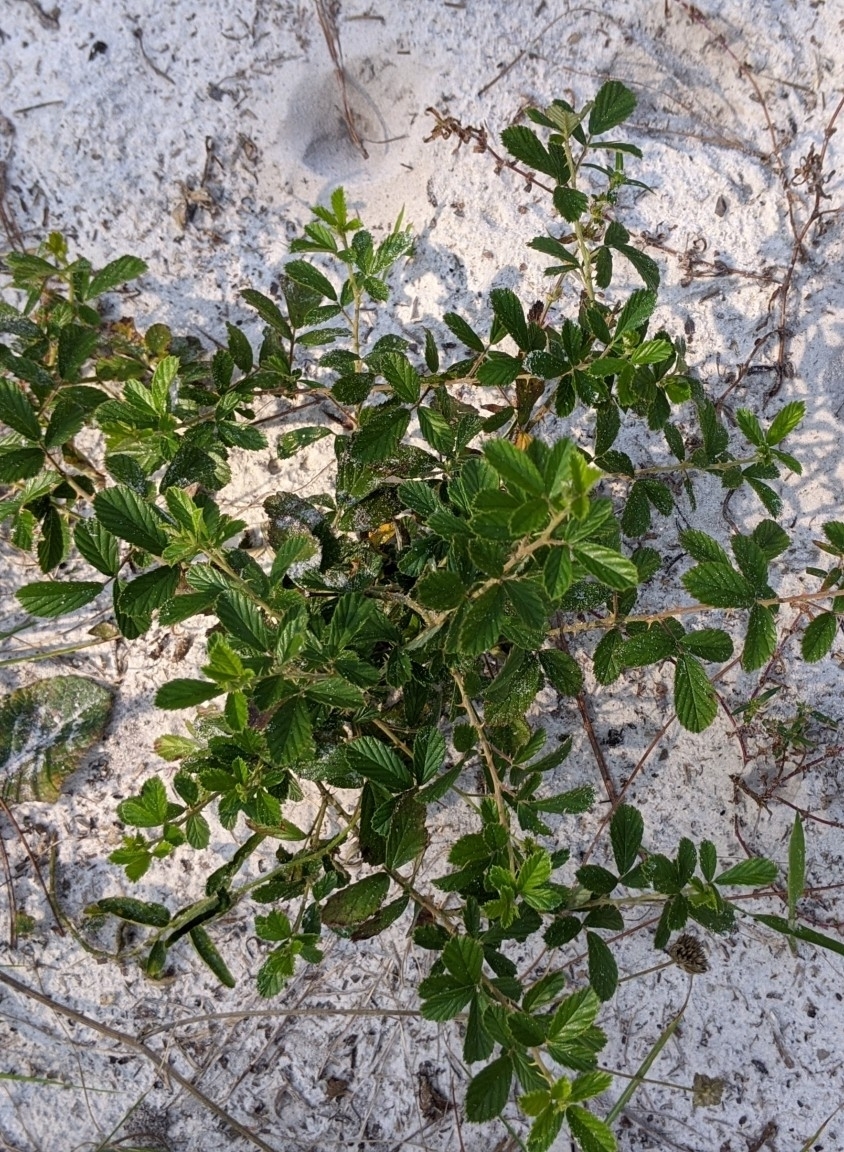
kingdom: Plantae
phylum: Tracheophyta
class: Magnoliopsida
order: Rosales
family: Rosaceae
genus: Rubus
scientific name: Rubus cuneifolius
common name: American bramble
